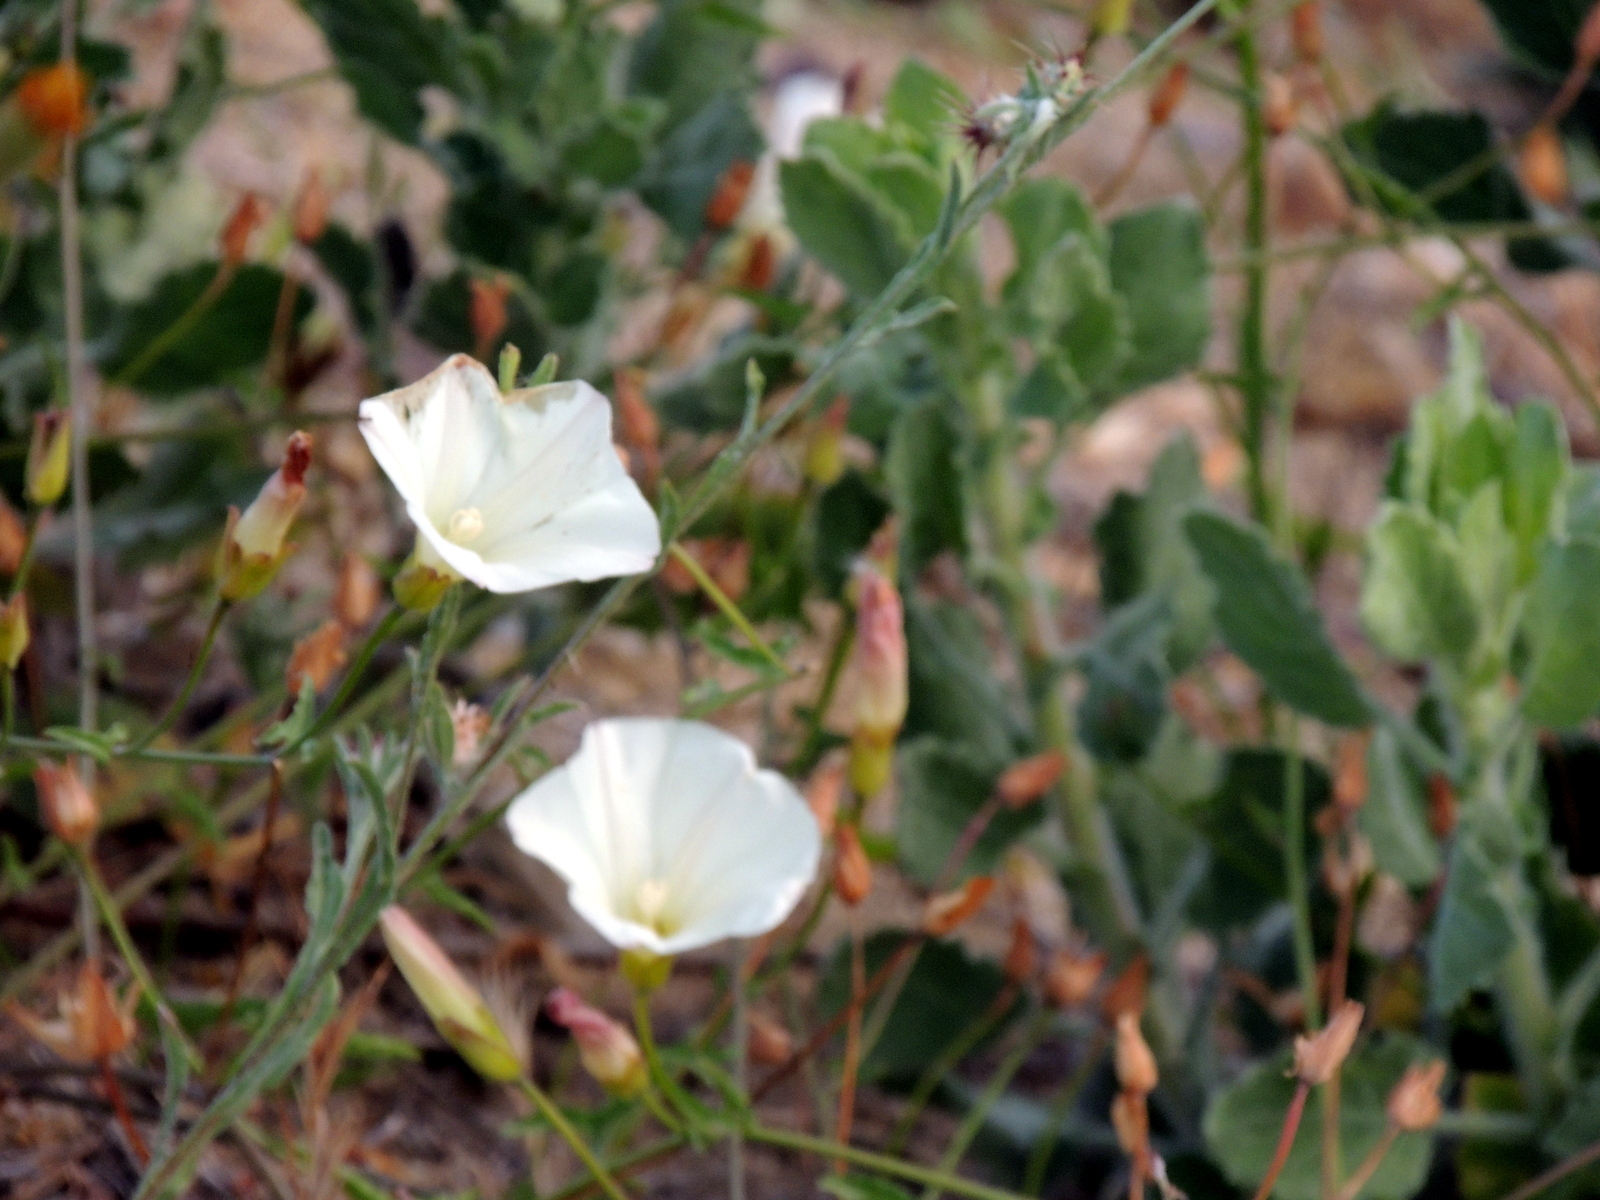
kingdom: Plantae
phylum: Tracheophyta
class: Magnoliopsida
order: Solanales
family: Convolvulaceae
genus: Calystegia
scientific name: Calystegia macrostegia
